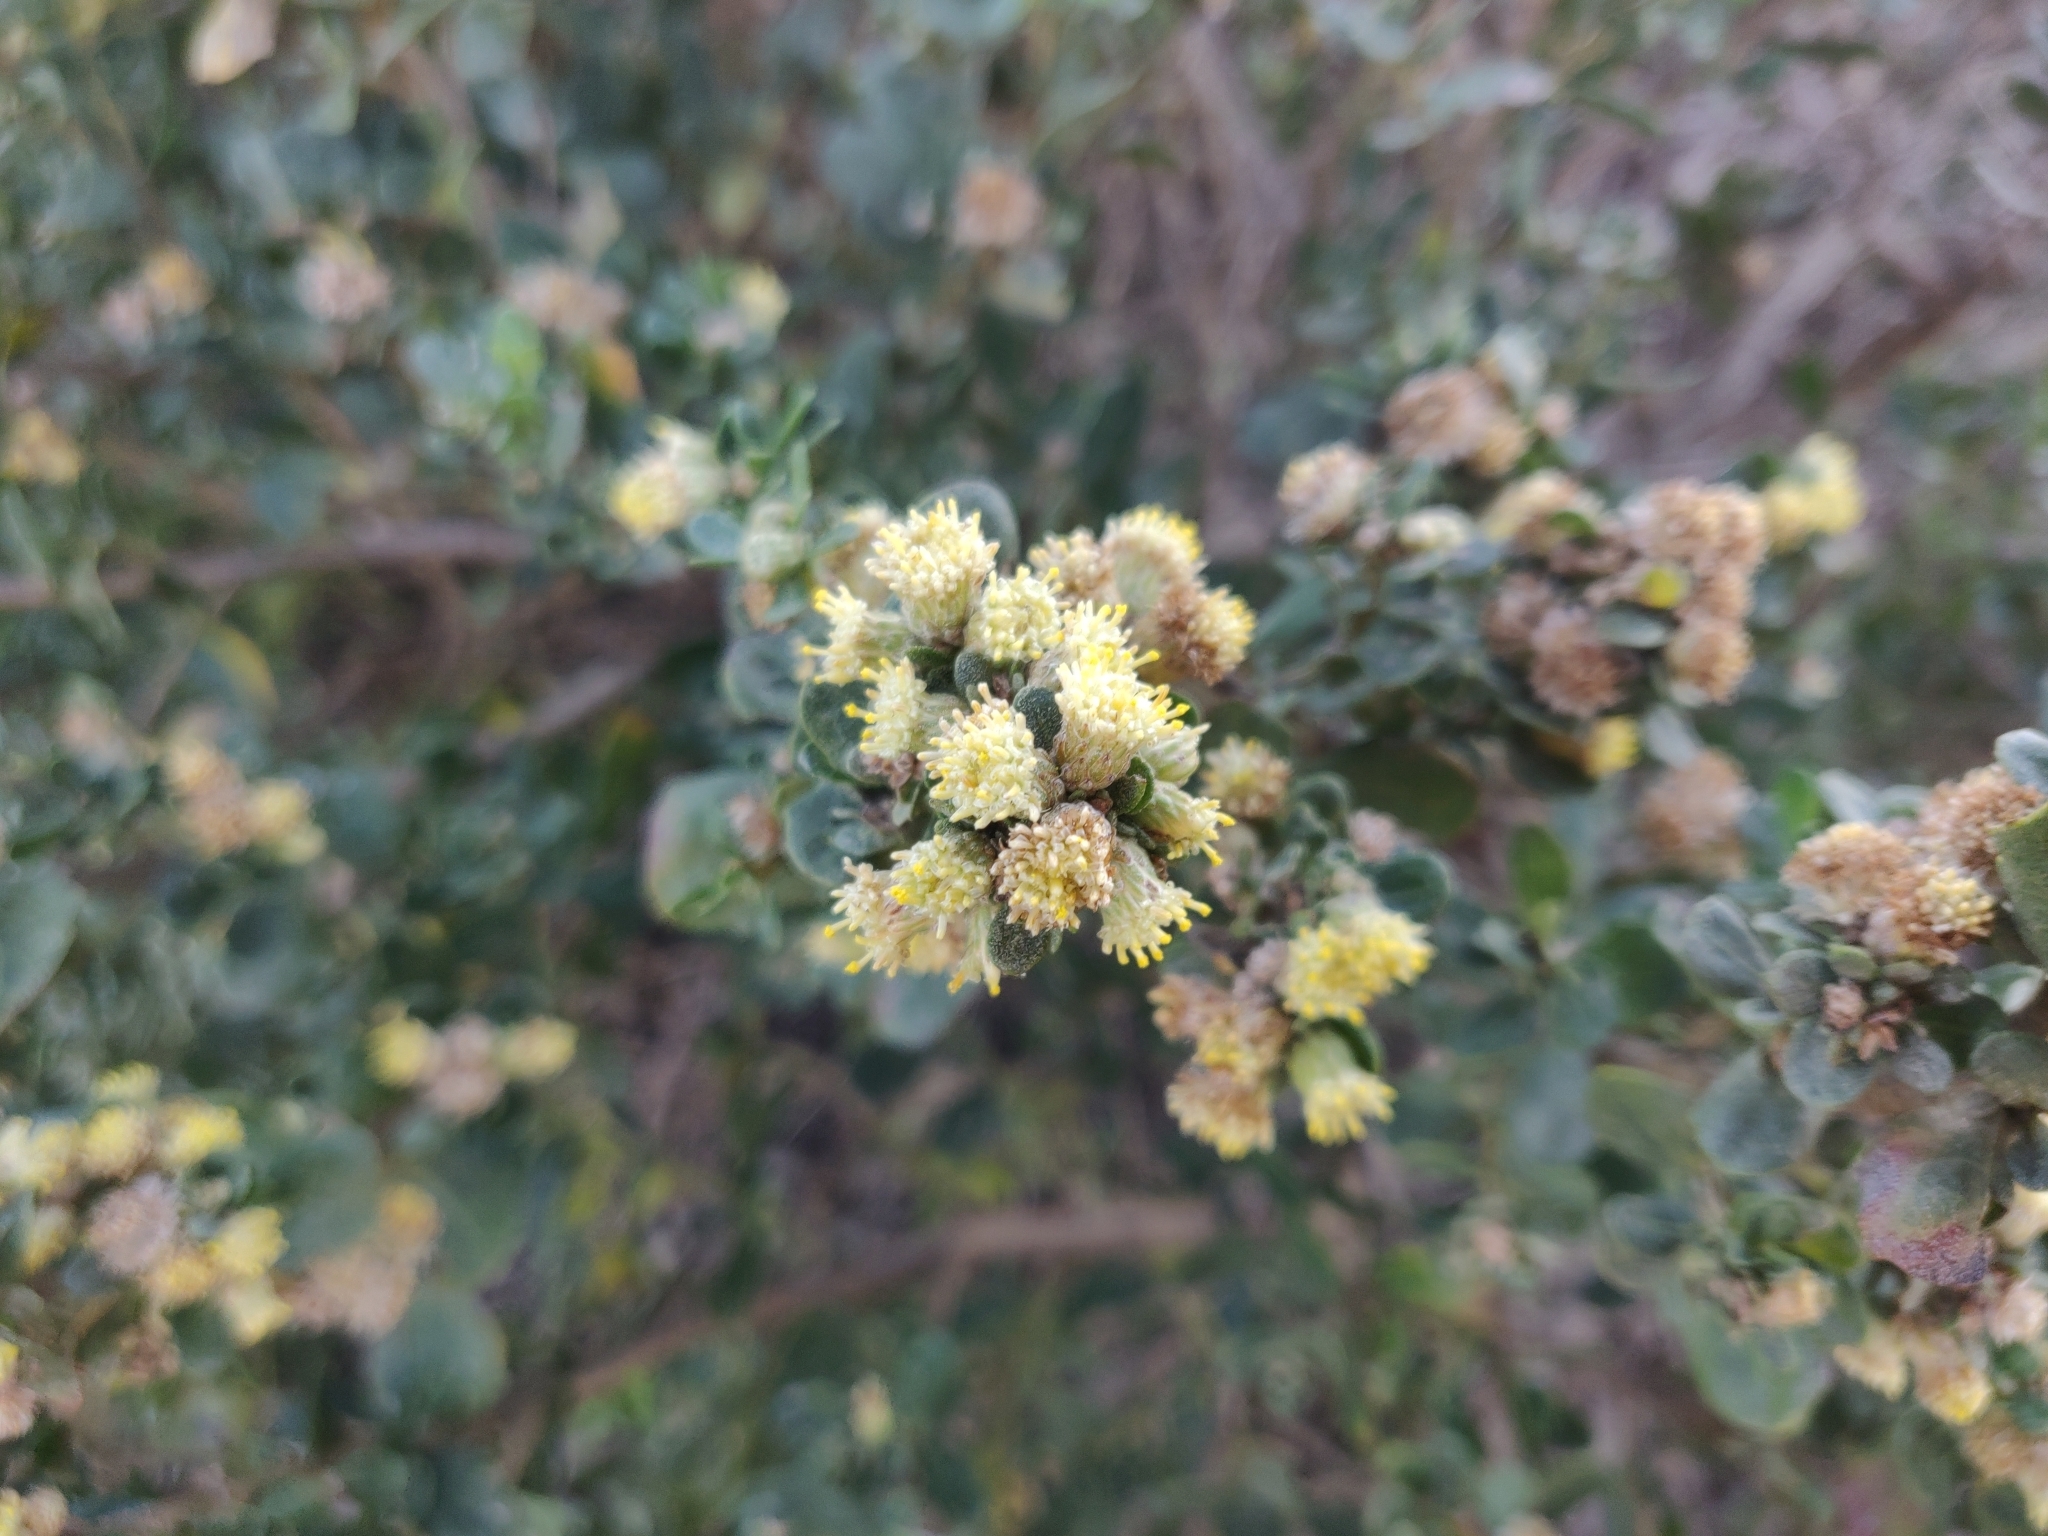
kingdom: Plantae
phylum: Tracheophyta
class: Magnoliopsida
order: Asterales
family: Asteraceae
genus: Baccharis
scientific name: Baccharis pilularis
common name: Coyotebrush
